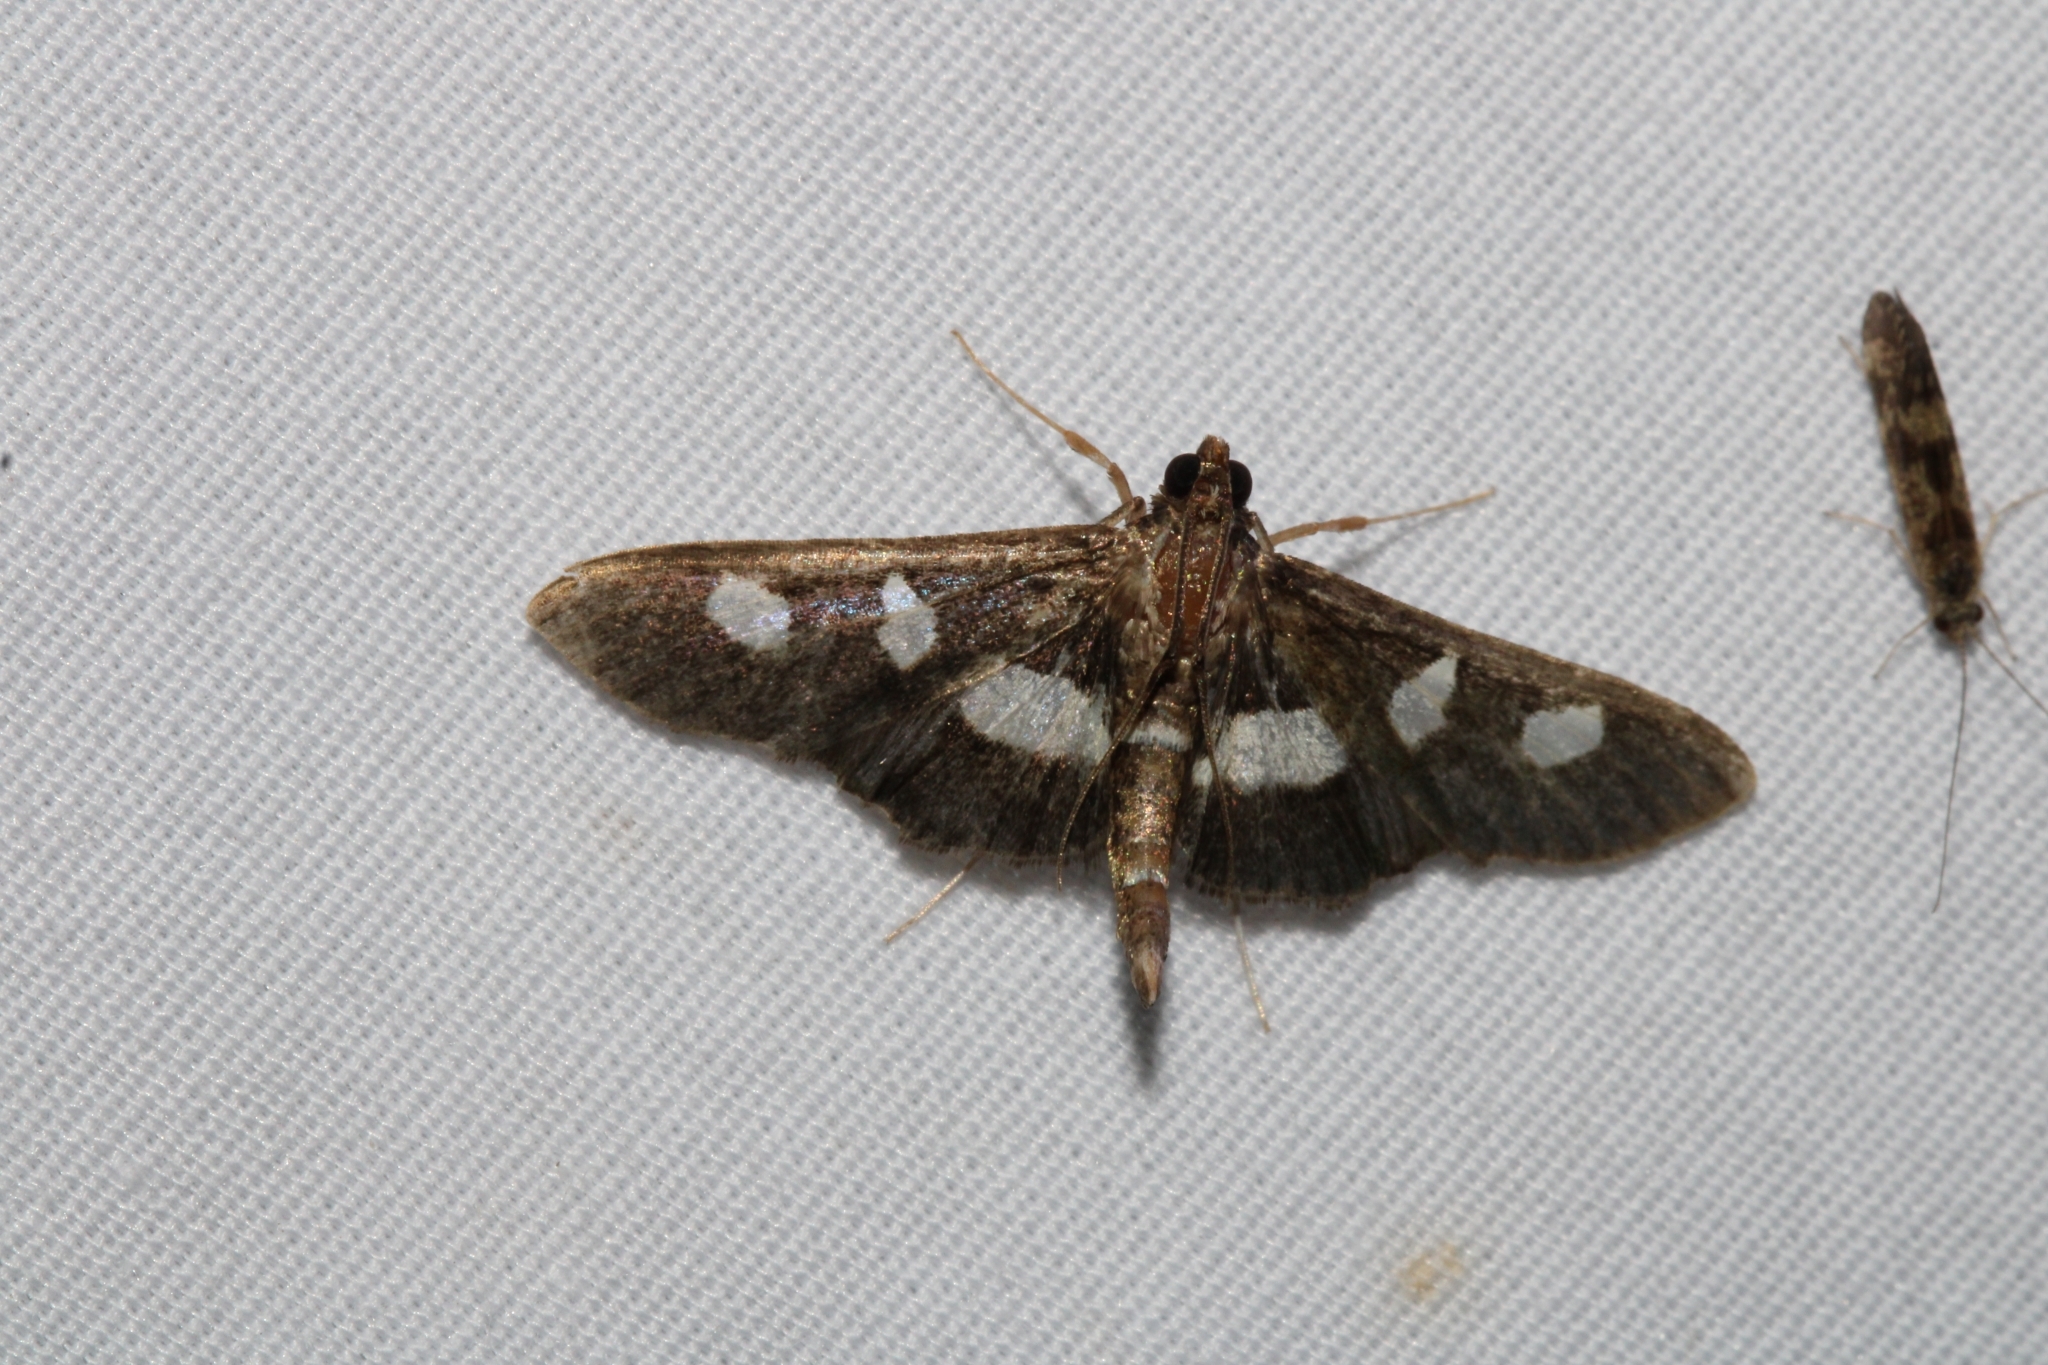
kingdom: Animalia
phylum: Arthropoda
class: Insecta
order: Lepidoptera
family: Crambidae
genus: Desmia
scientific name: Desmia
